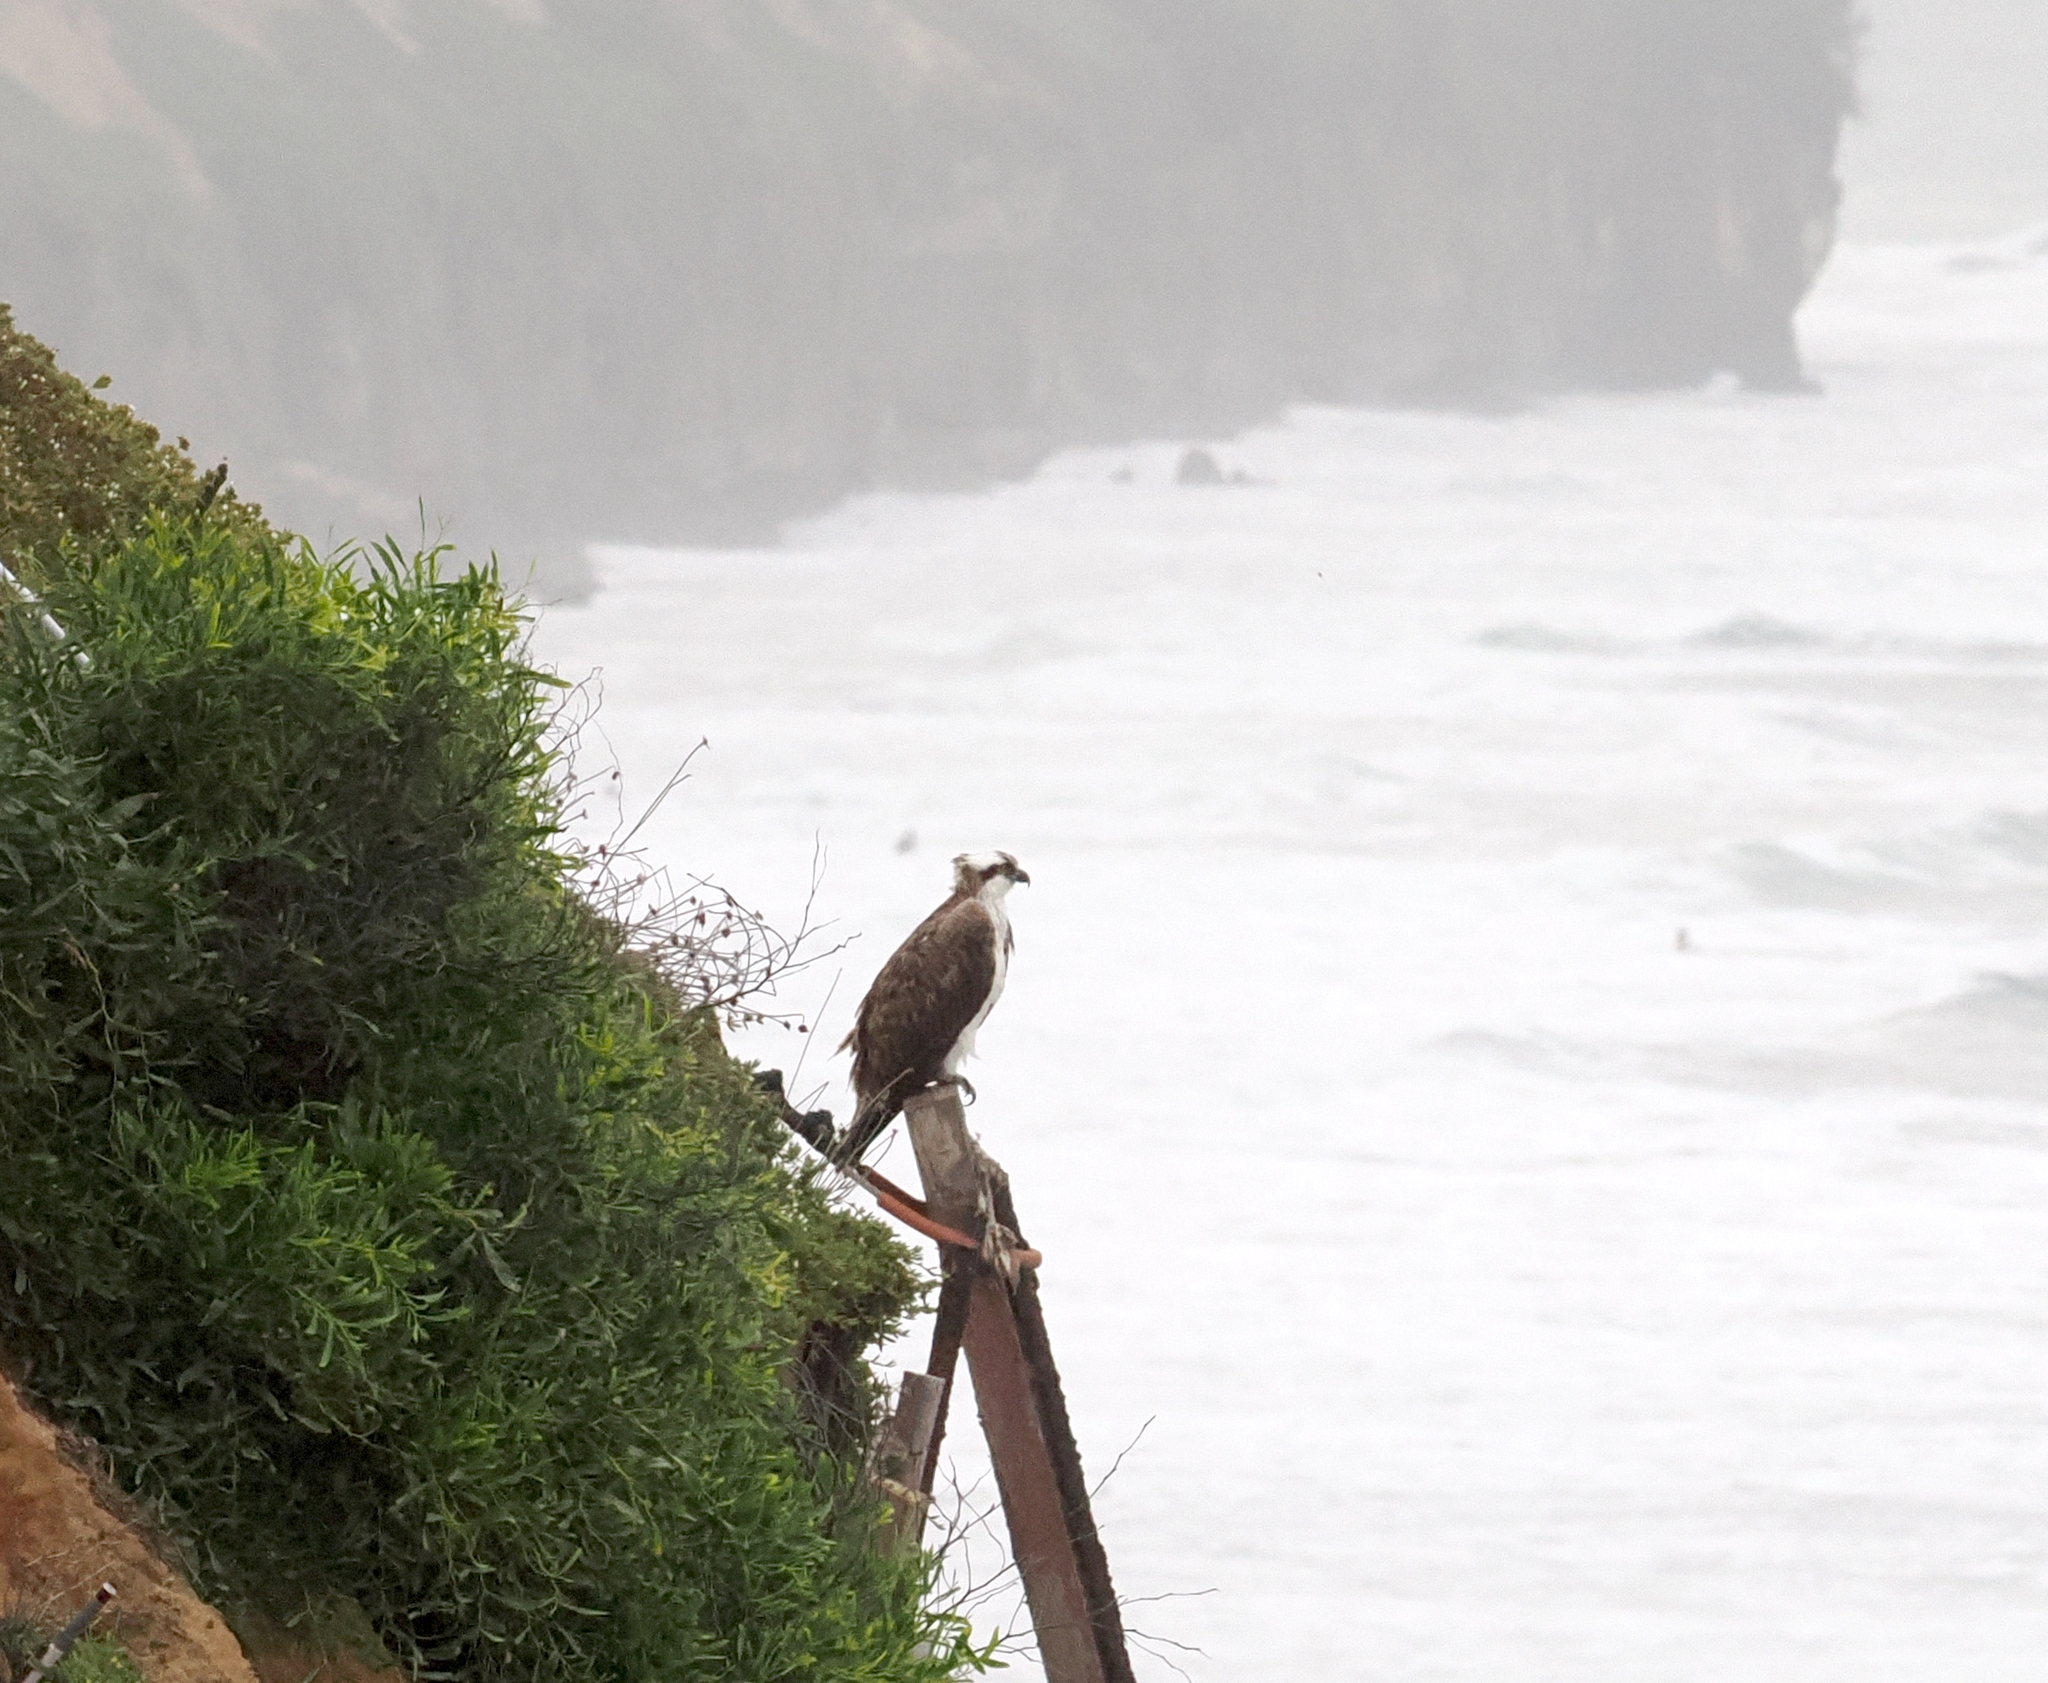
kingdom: Animalia
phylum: Chordata
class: Aves
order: Accipitriformes
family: Pandionidae
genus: Pandion
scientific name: Pandion haliaetus
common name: Osprey
